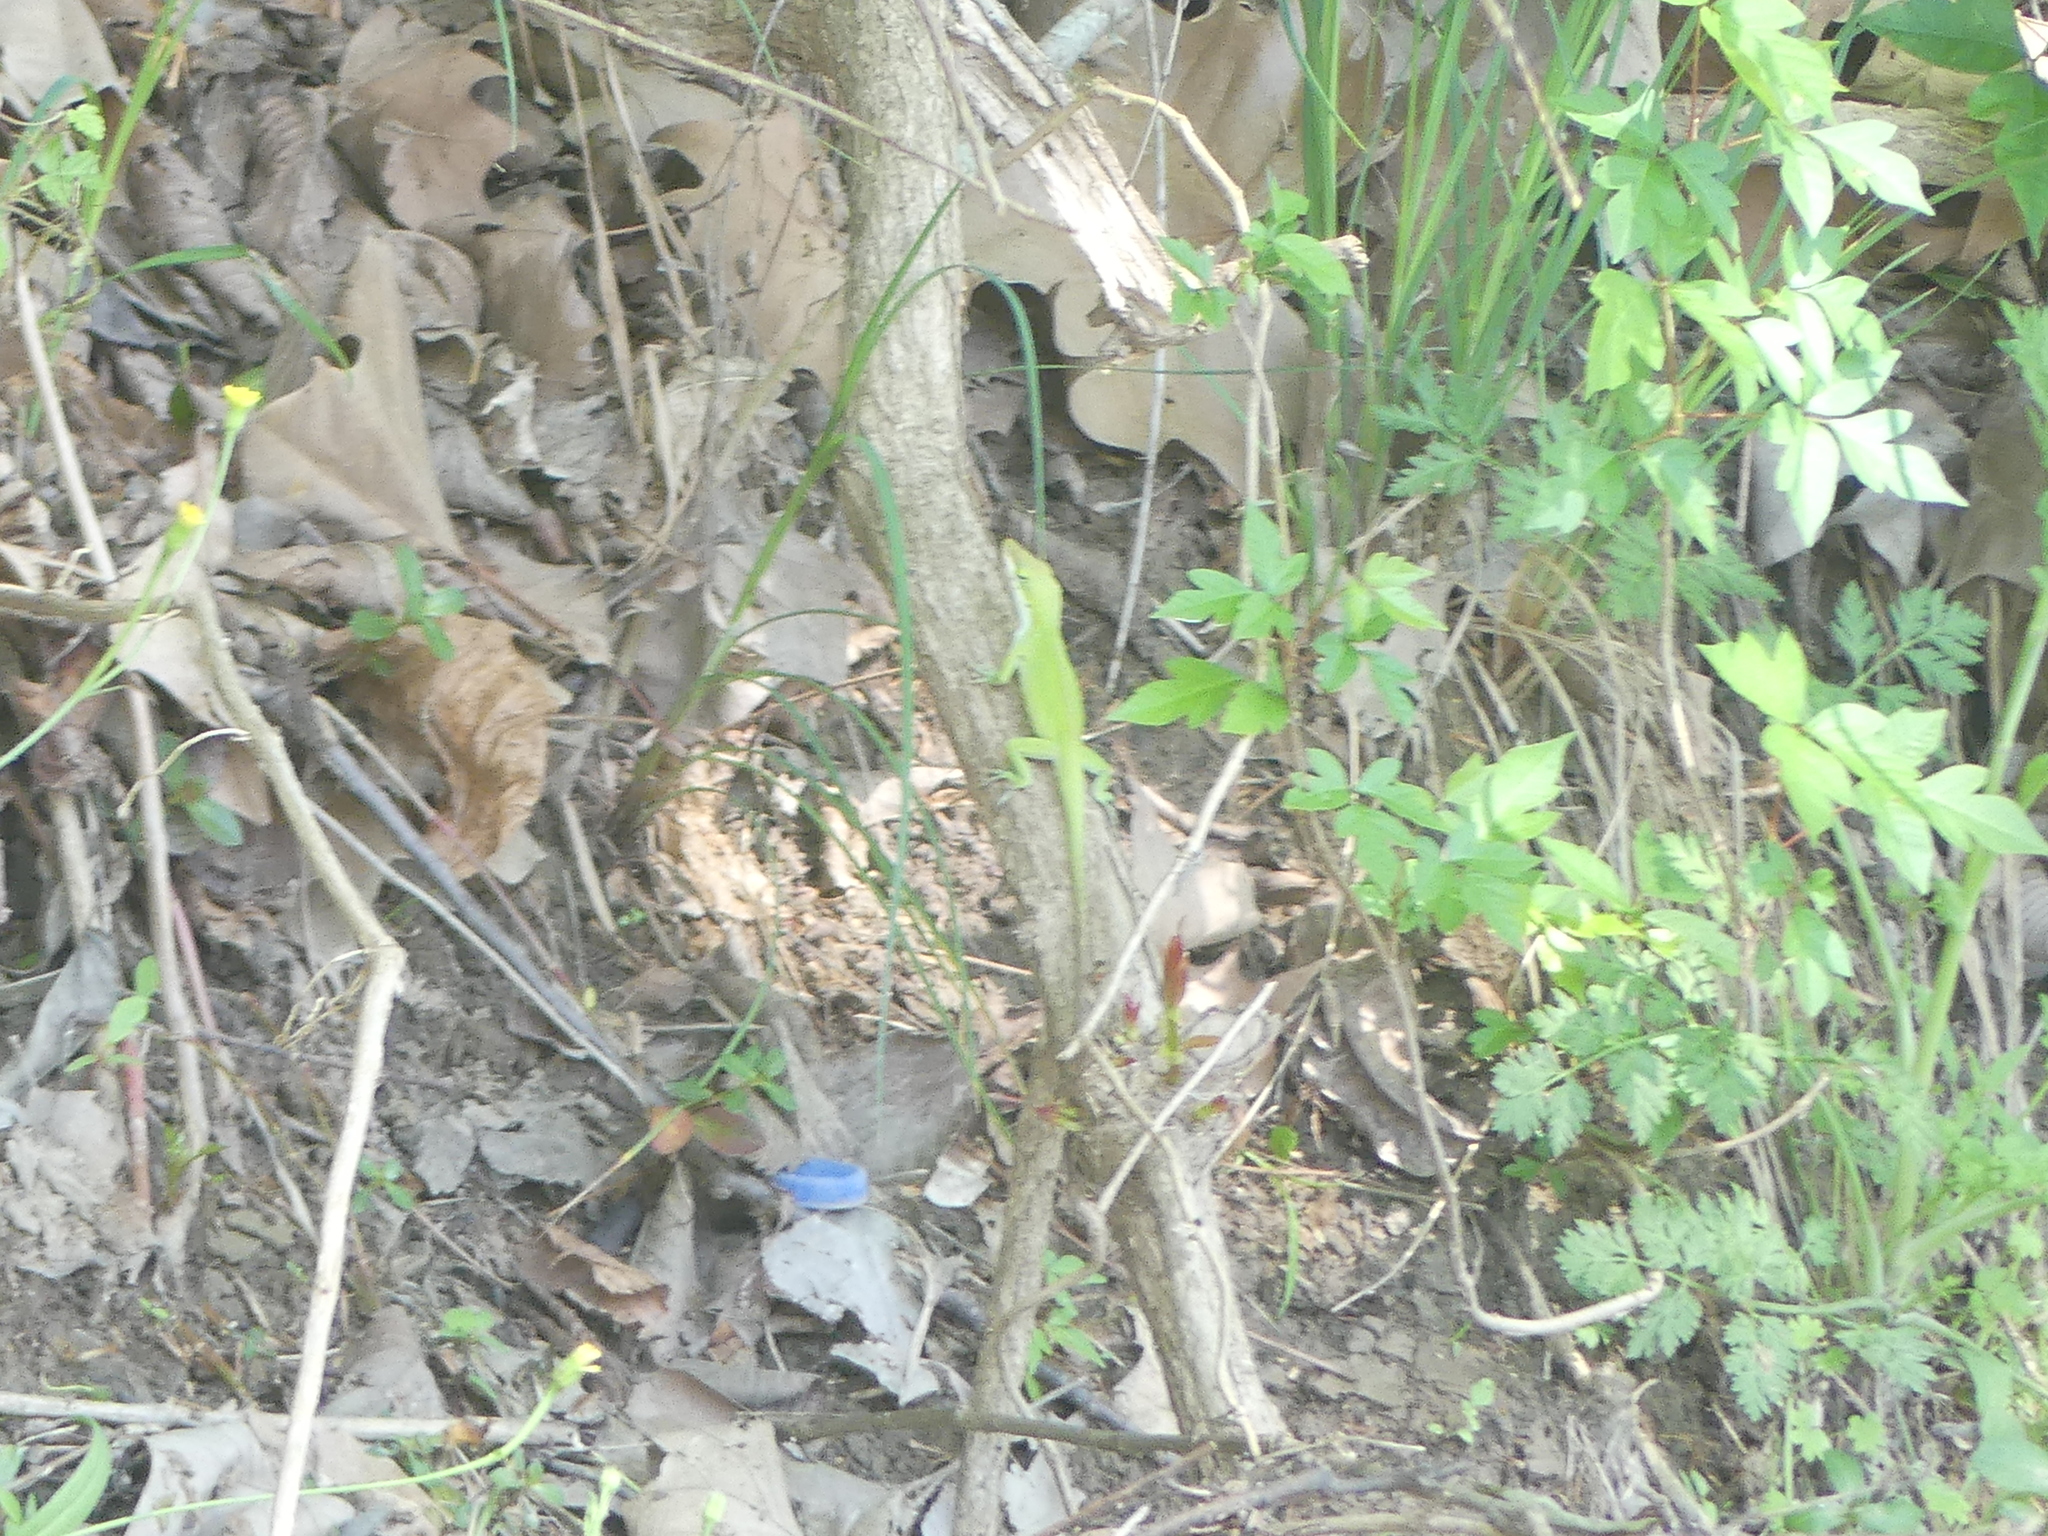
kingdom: Animalia
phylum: Chordata
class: Squamata
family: Dactyloidae
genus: Anolis
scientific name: Anolis carolinensis
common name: Green anole
